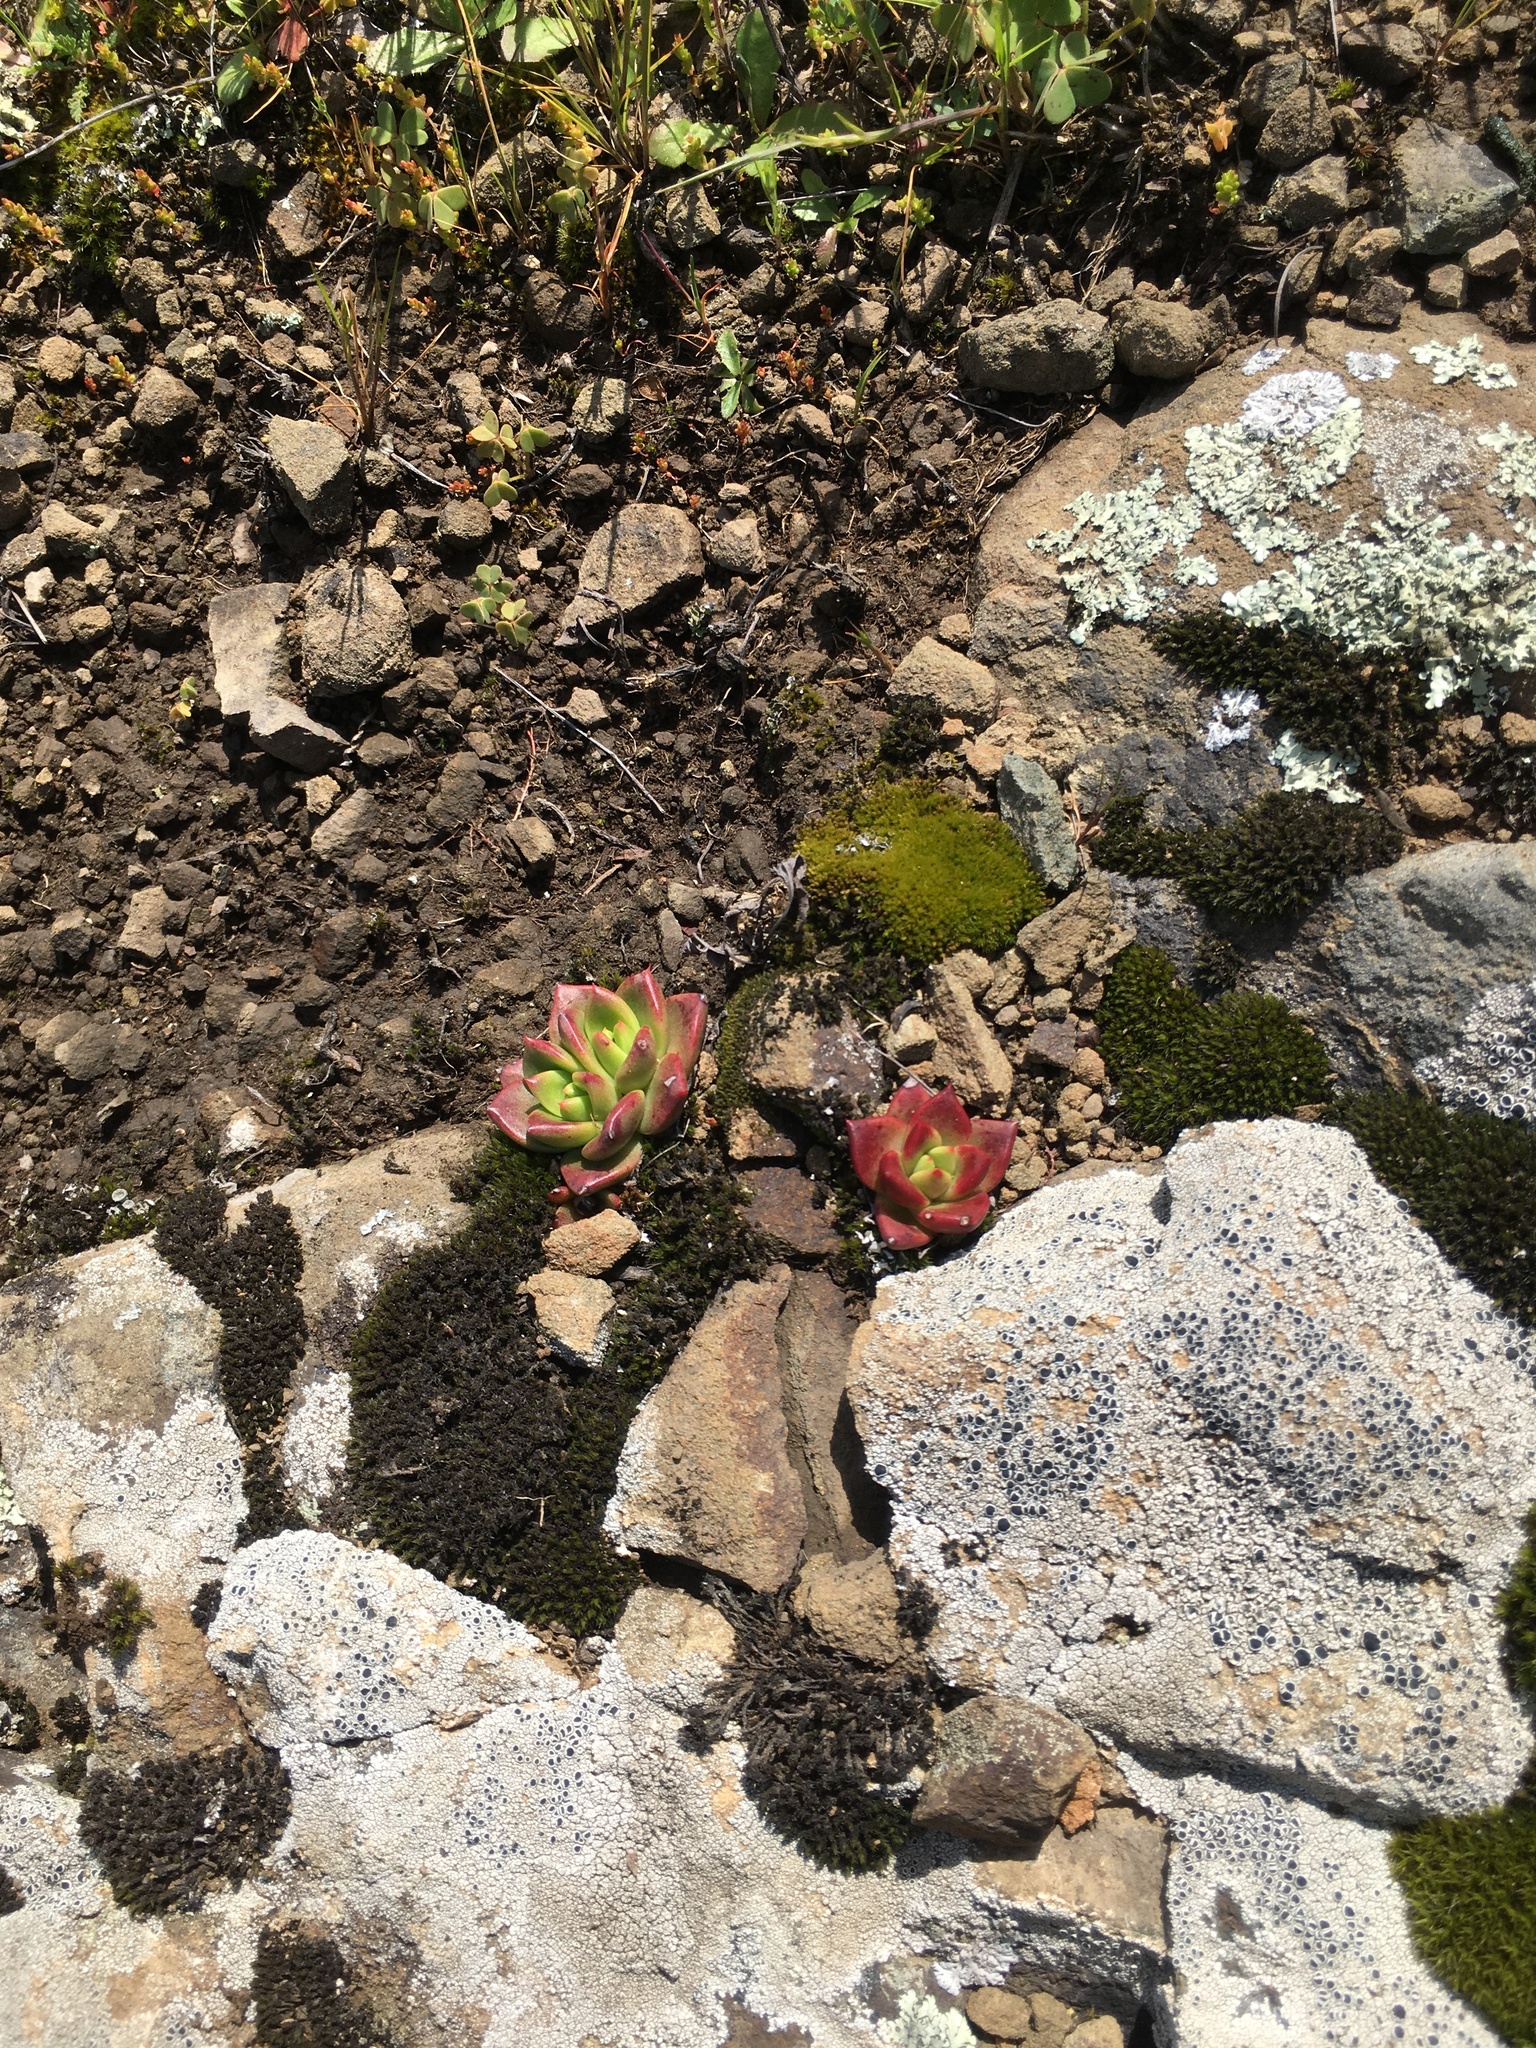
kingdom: Plantae
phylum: Tracheophyta
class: Magnoliopsida
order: Saxifragales
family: Crassulaceae
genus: Dudleya
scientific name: Dudleya farinosa
